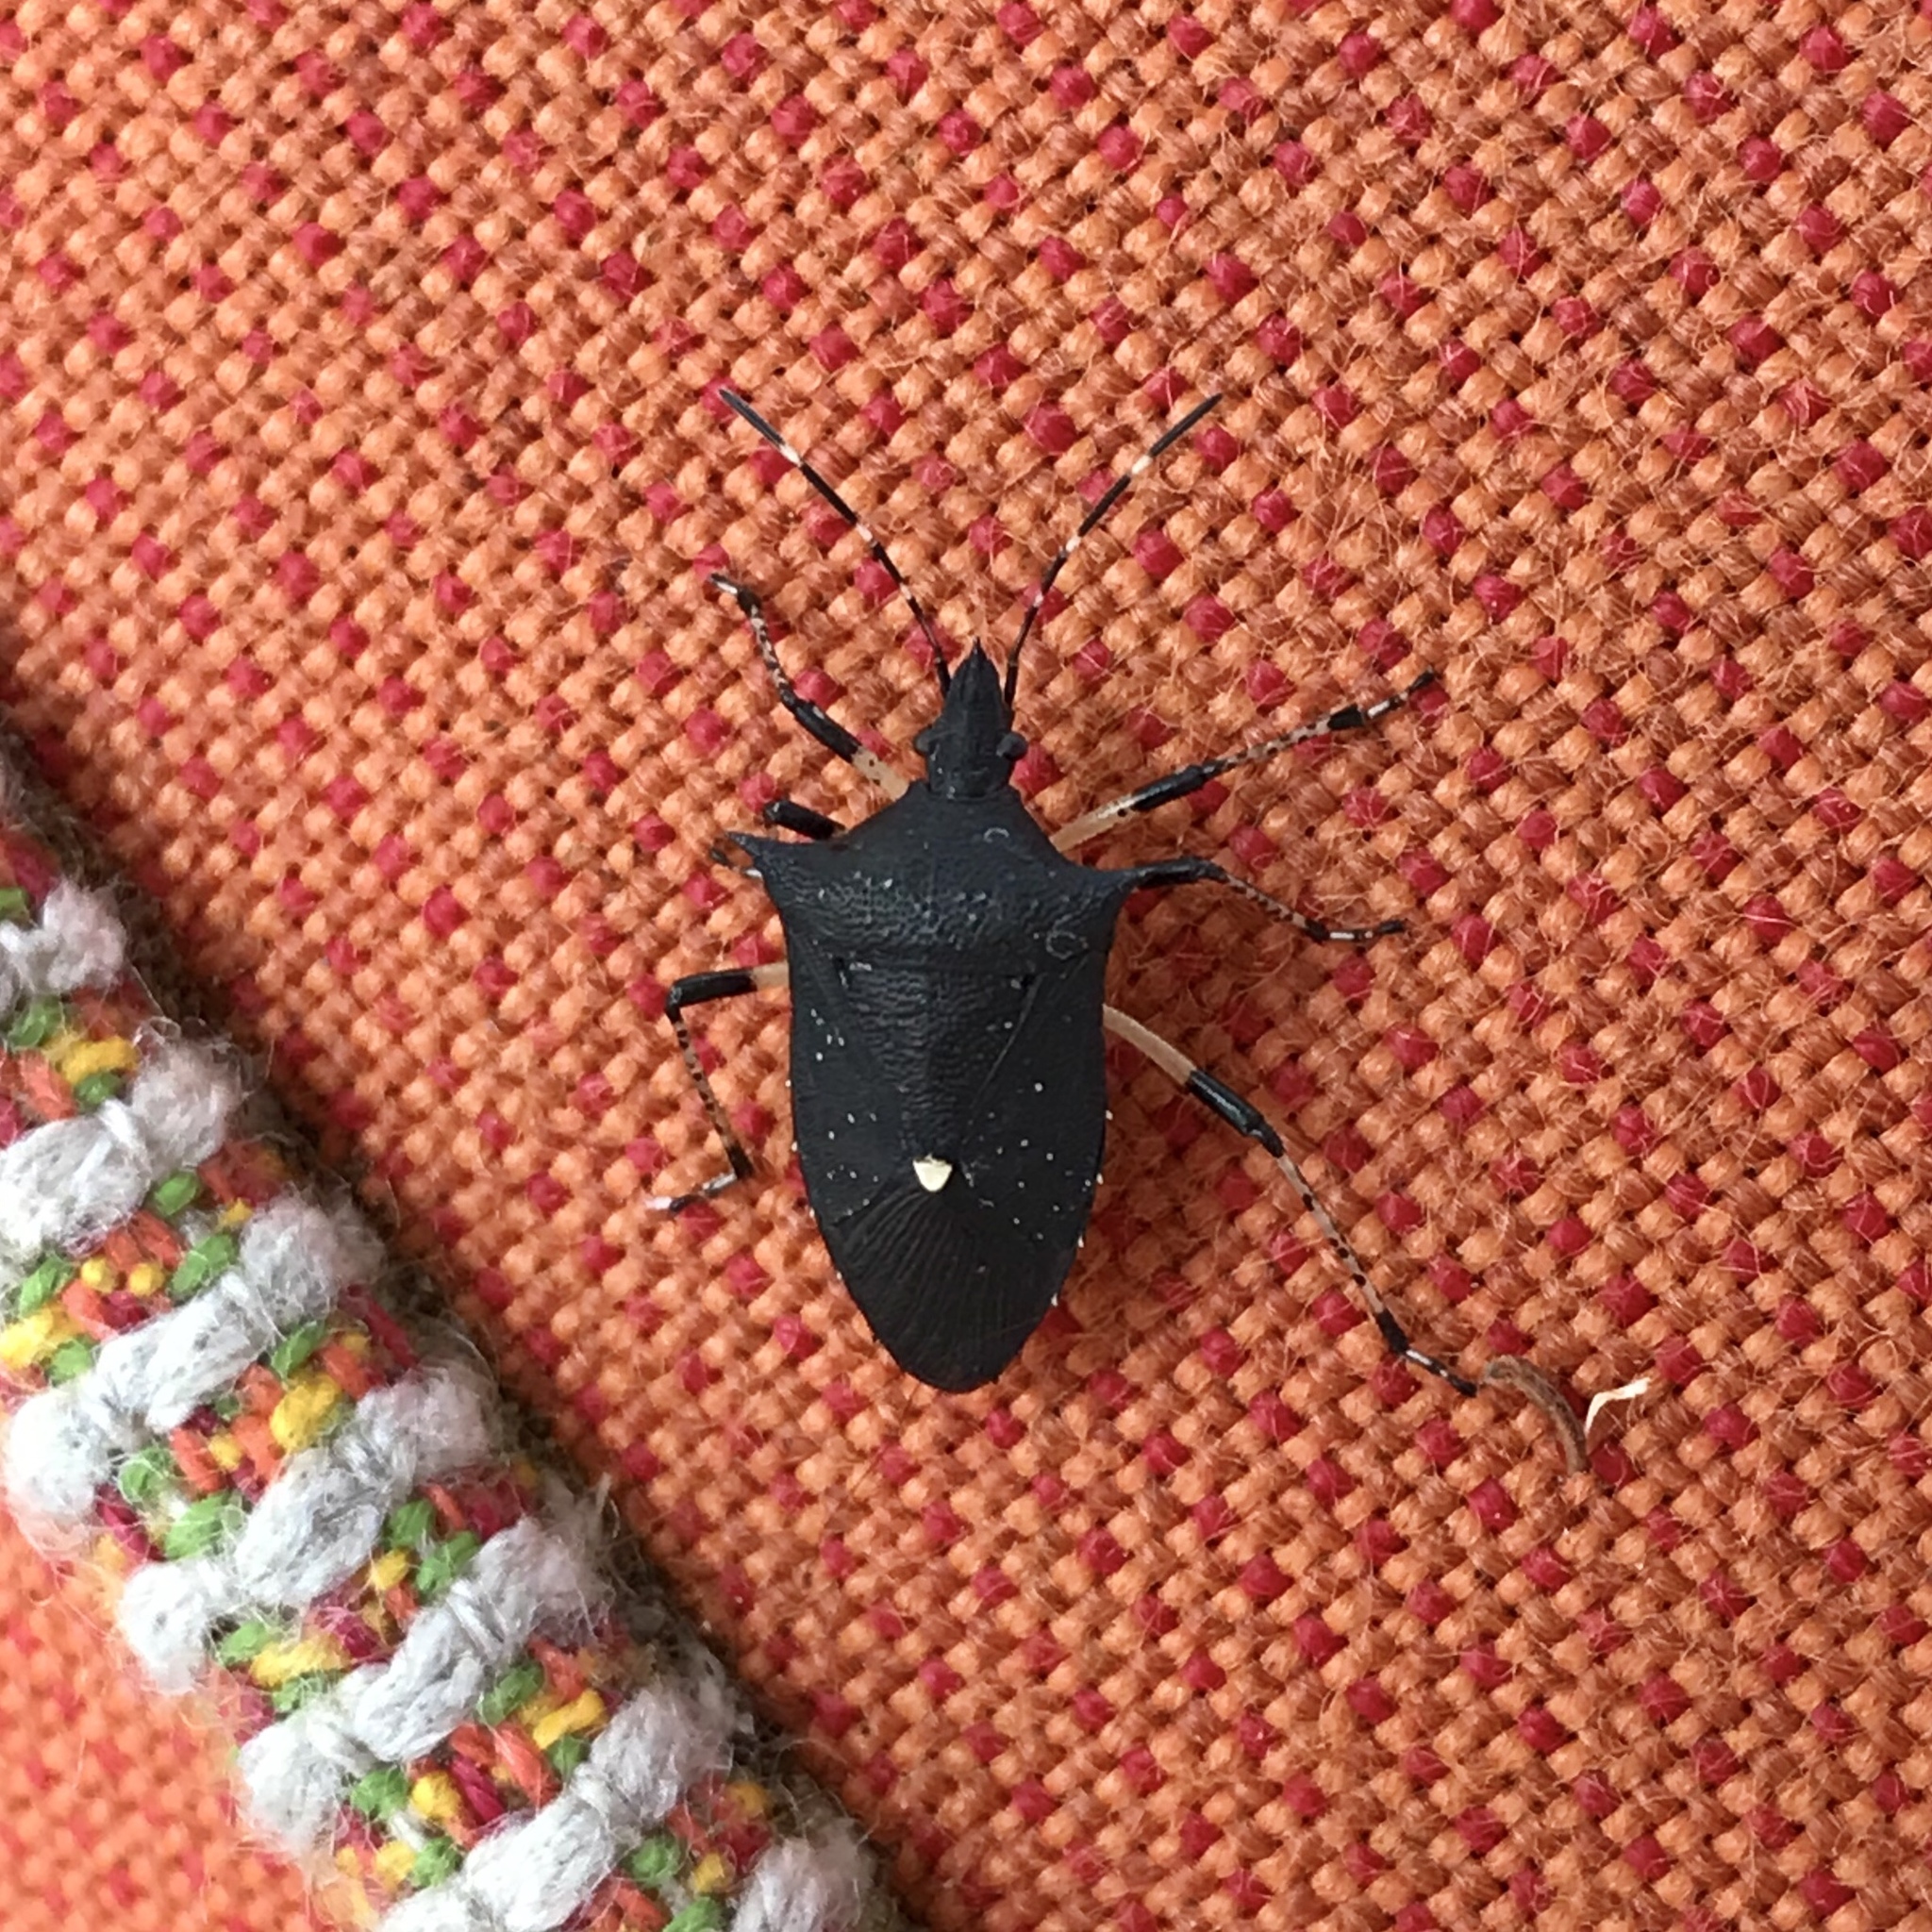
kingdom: Animalia
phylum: Arthropoda
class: Insecta
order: Hemiptera
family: Pentatomidae
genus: Proxys
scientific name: Proxys punctulatus
